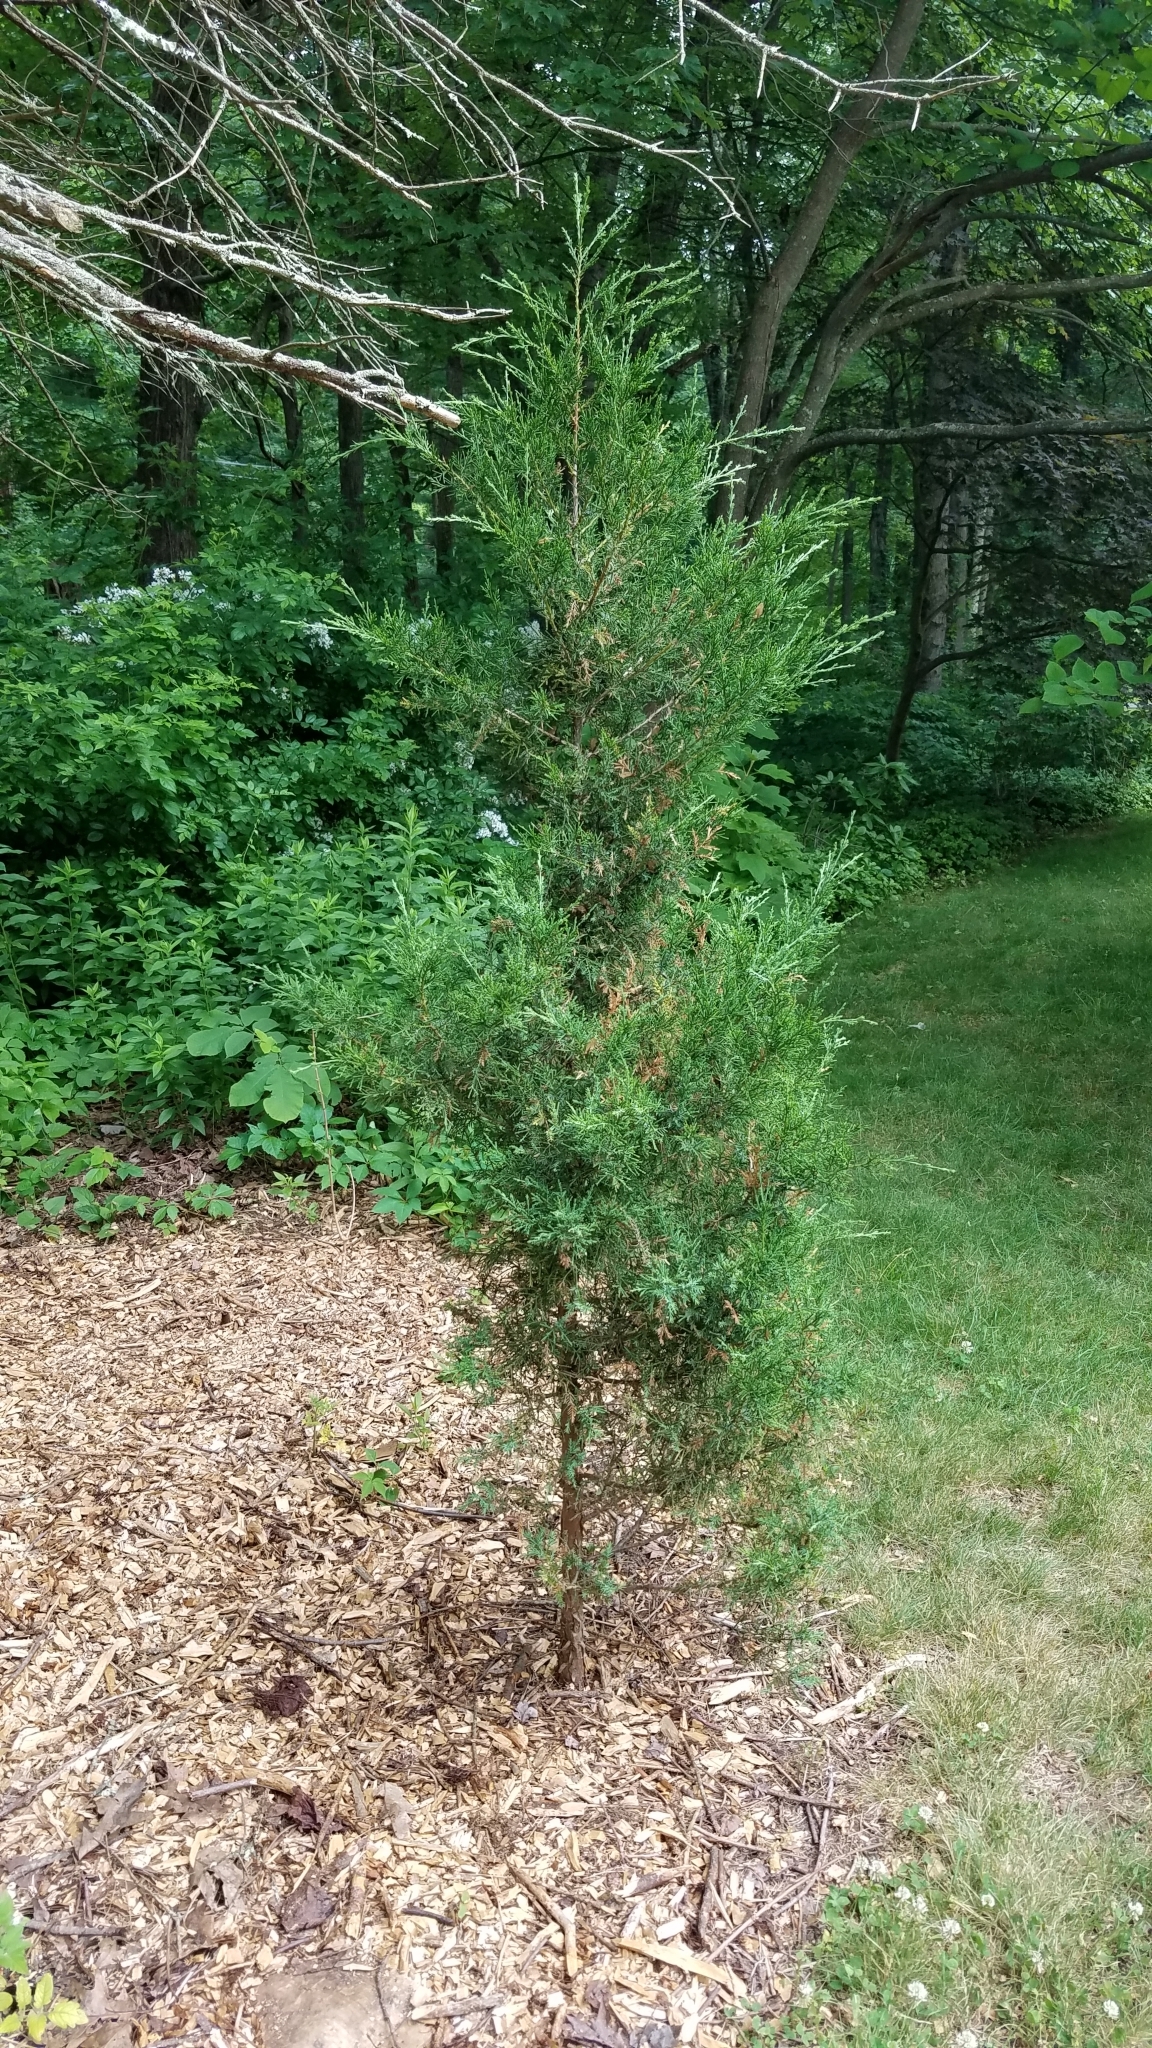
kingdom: Plantae
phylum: Tracheophyta
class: Pinopsida
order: Pinales
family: Cupressaceae
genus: Juniperus
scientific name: Juniperus virginiana
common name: Red juniper
